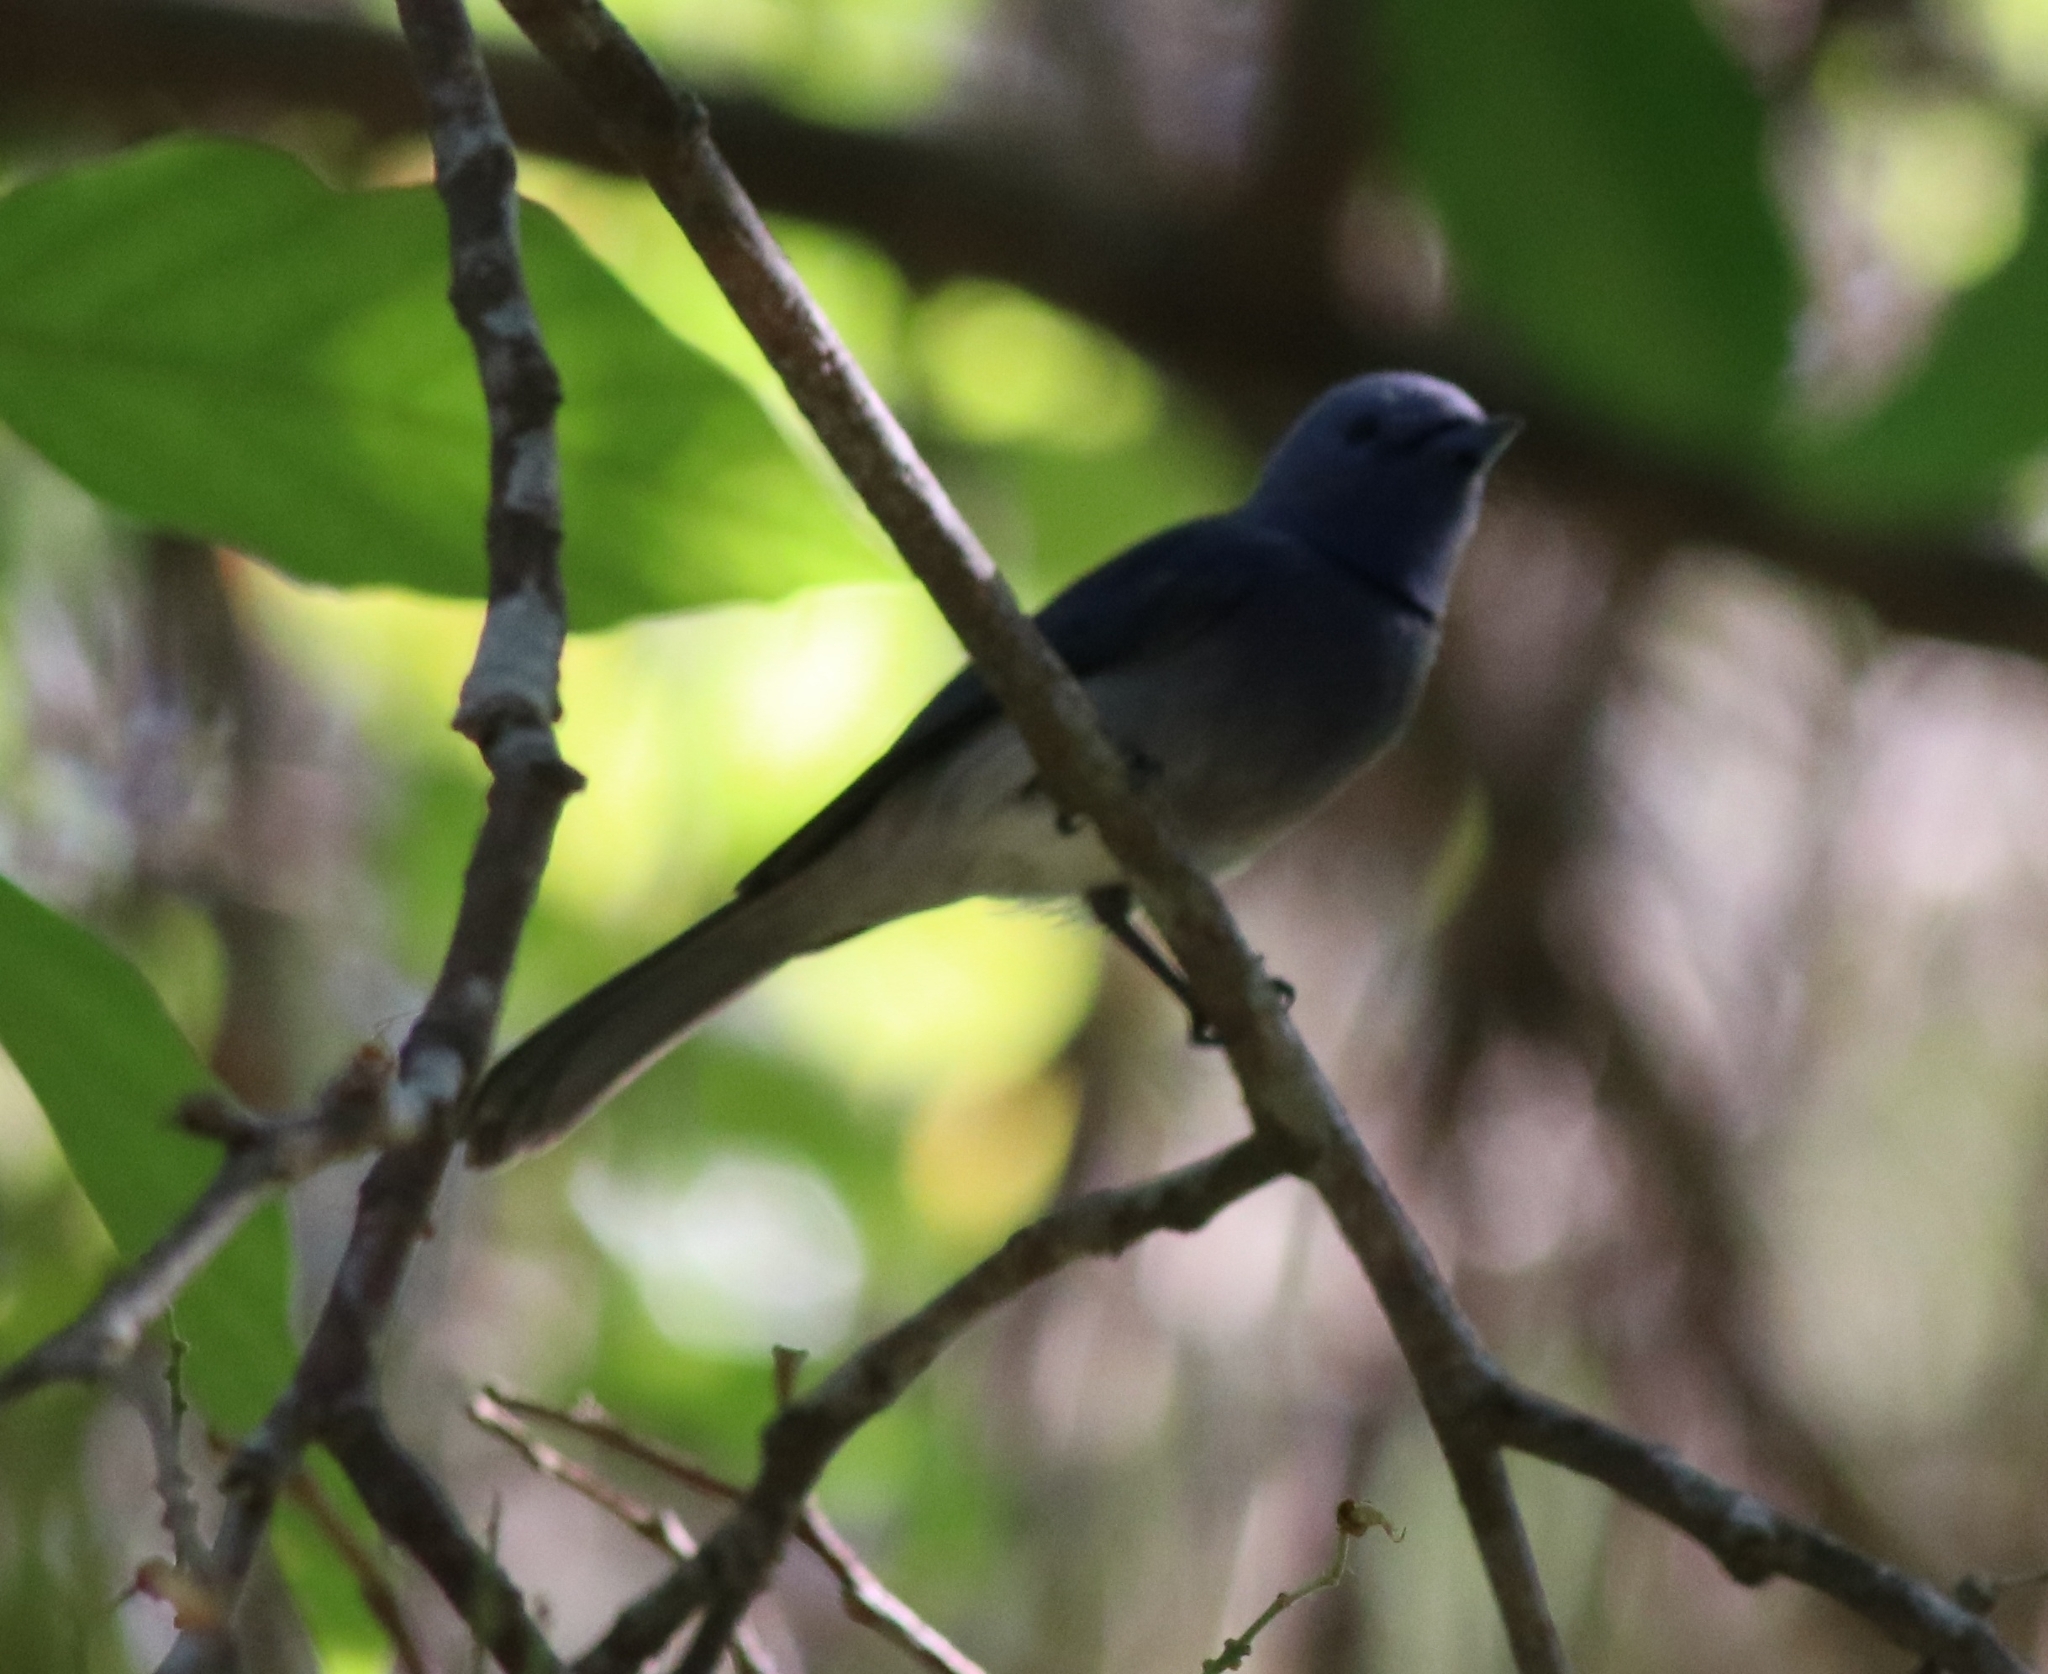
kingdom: Animalia
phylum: Chordata
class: Aves
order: Passeriformes
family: Monarchidae
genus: Hypothymis
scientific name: Hypothymis azurea
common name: Black-naped monarch
